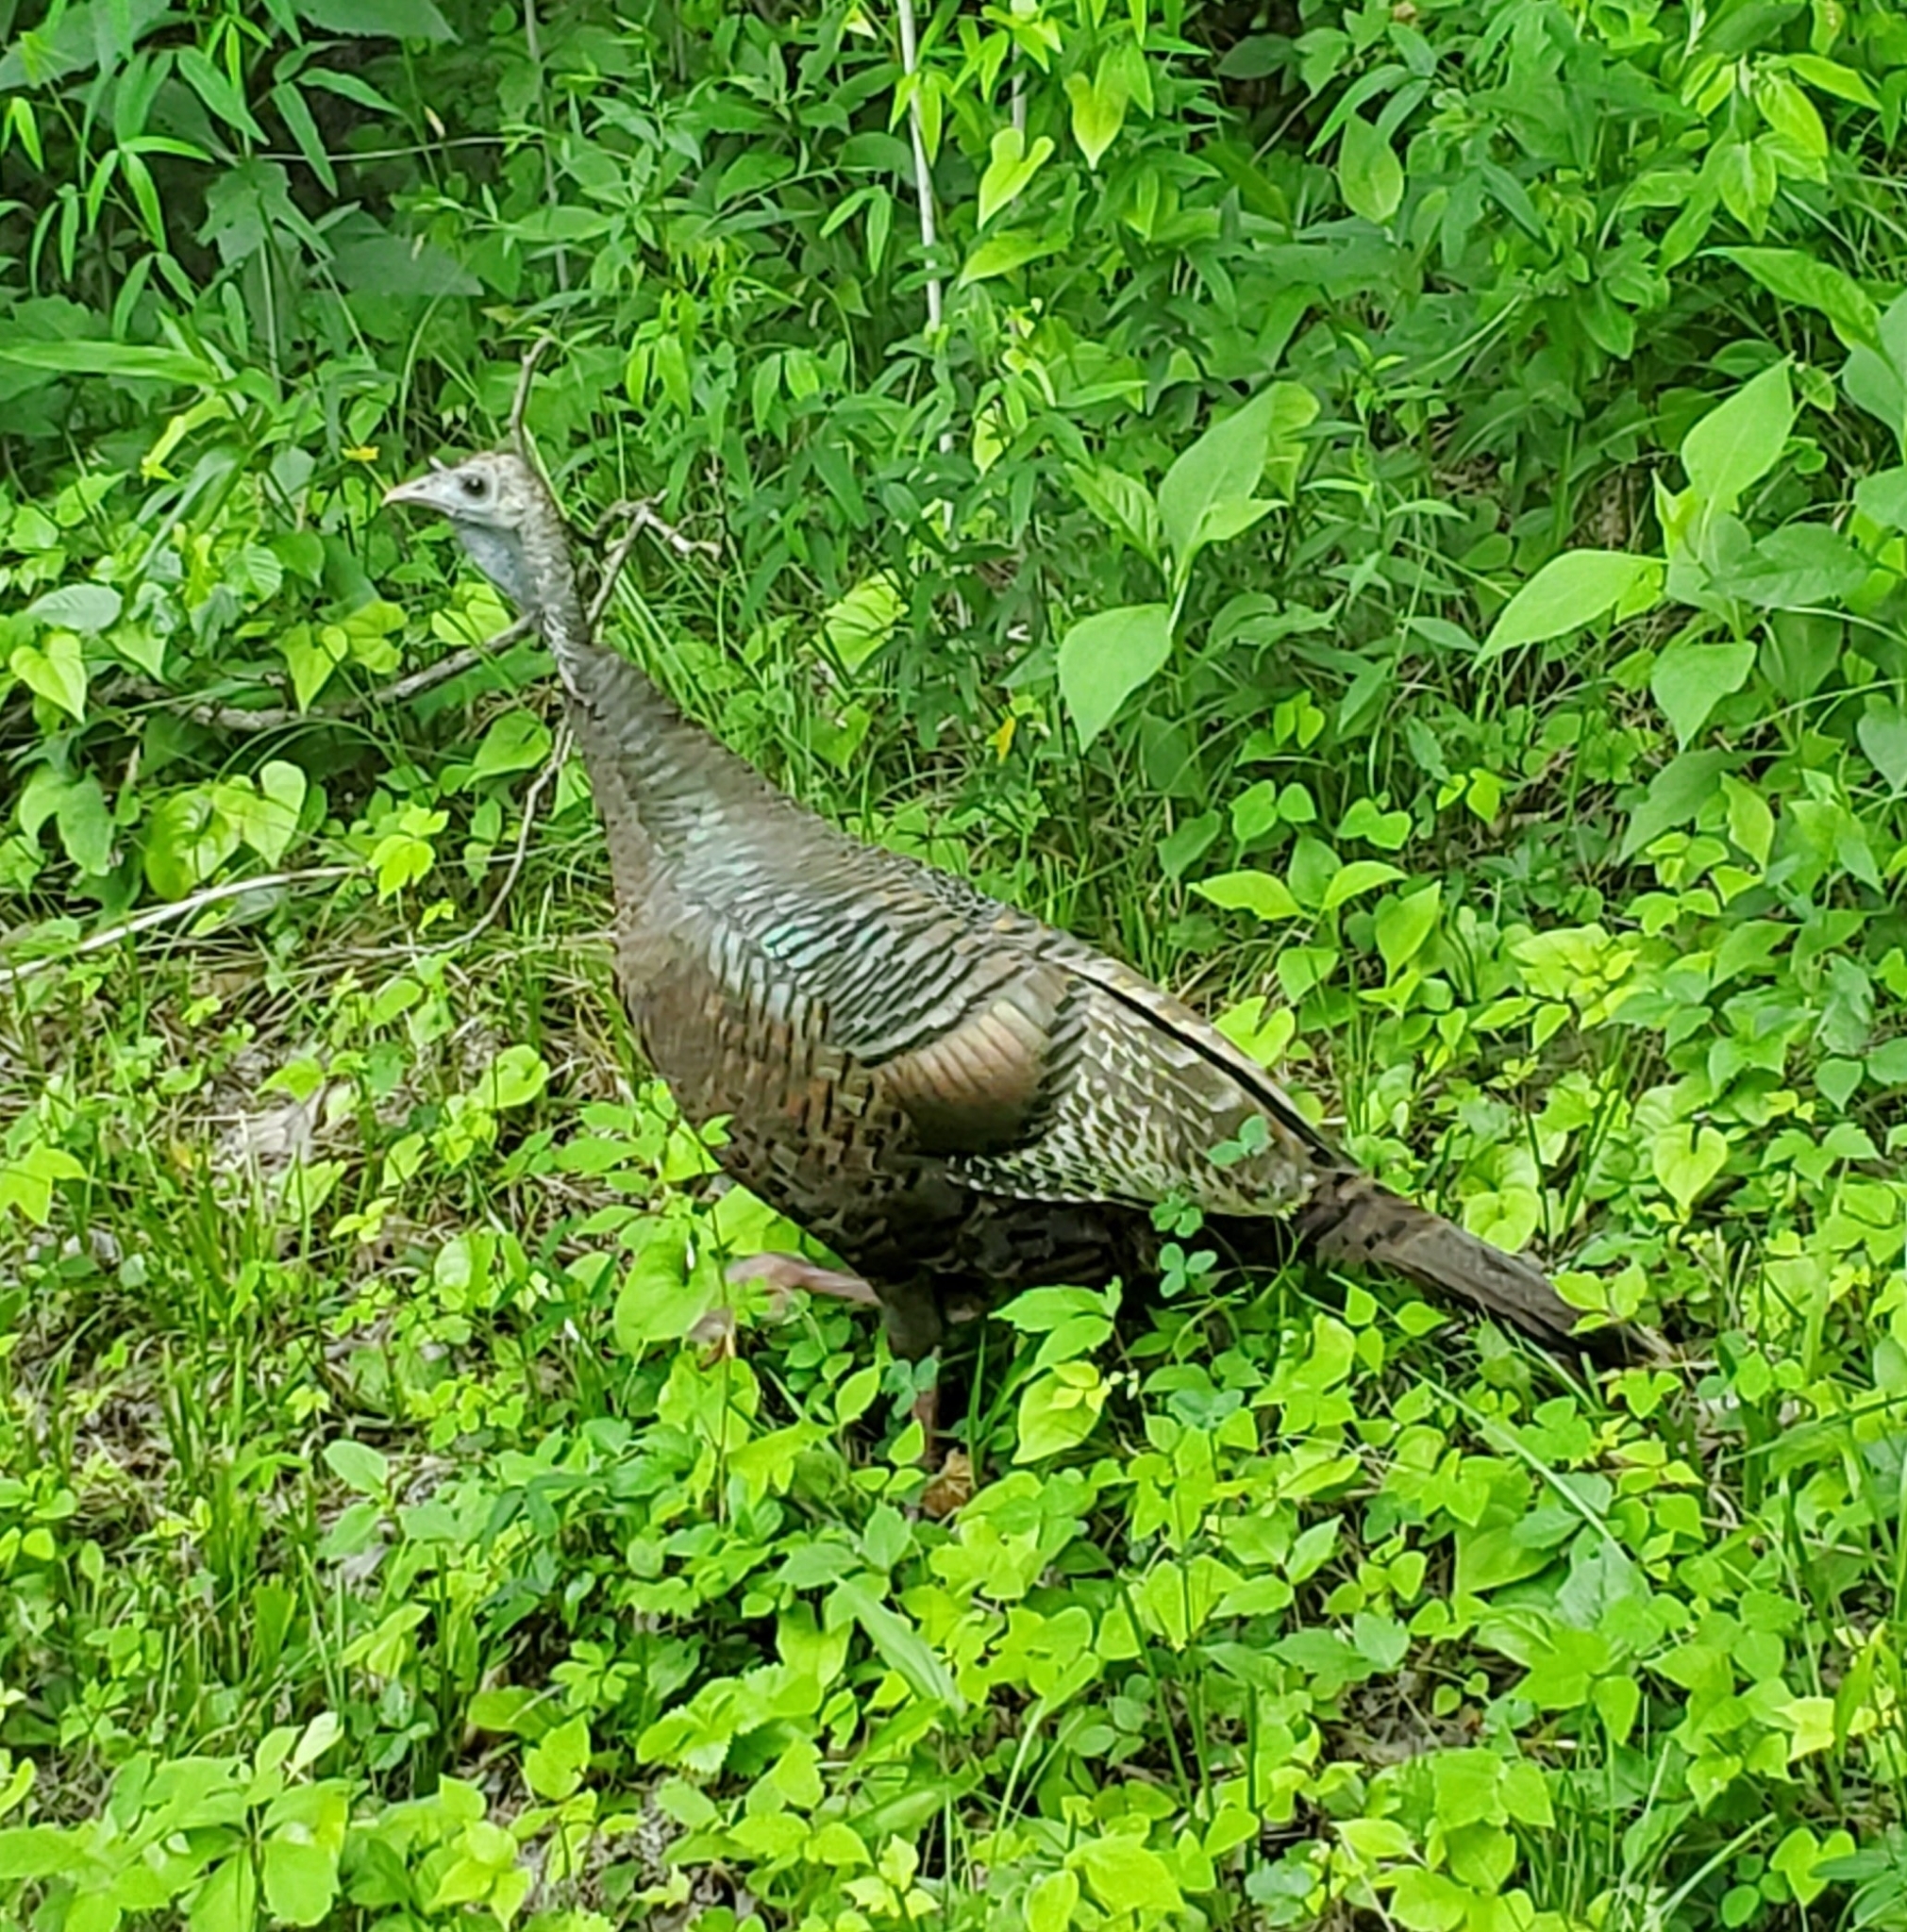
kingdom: Animalia
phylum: Chordata
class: Aves
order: Galliformes
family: Phasianidae
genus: Meleagris
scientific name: Meleagris gallopavo
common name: Wild turkey
